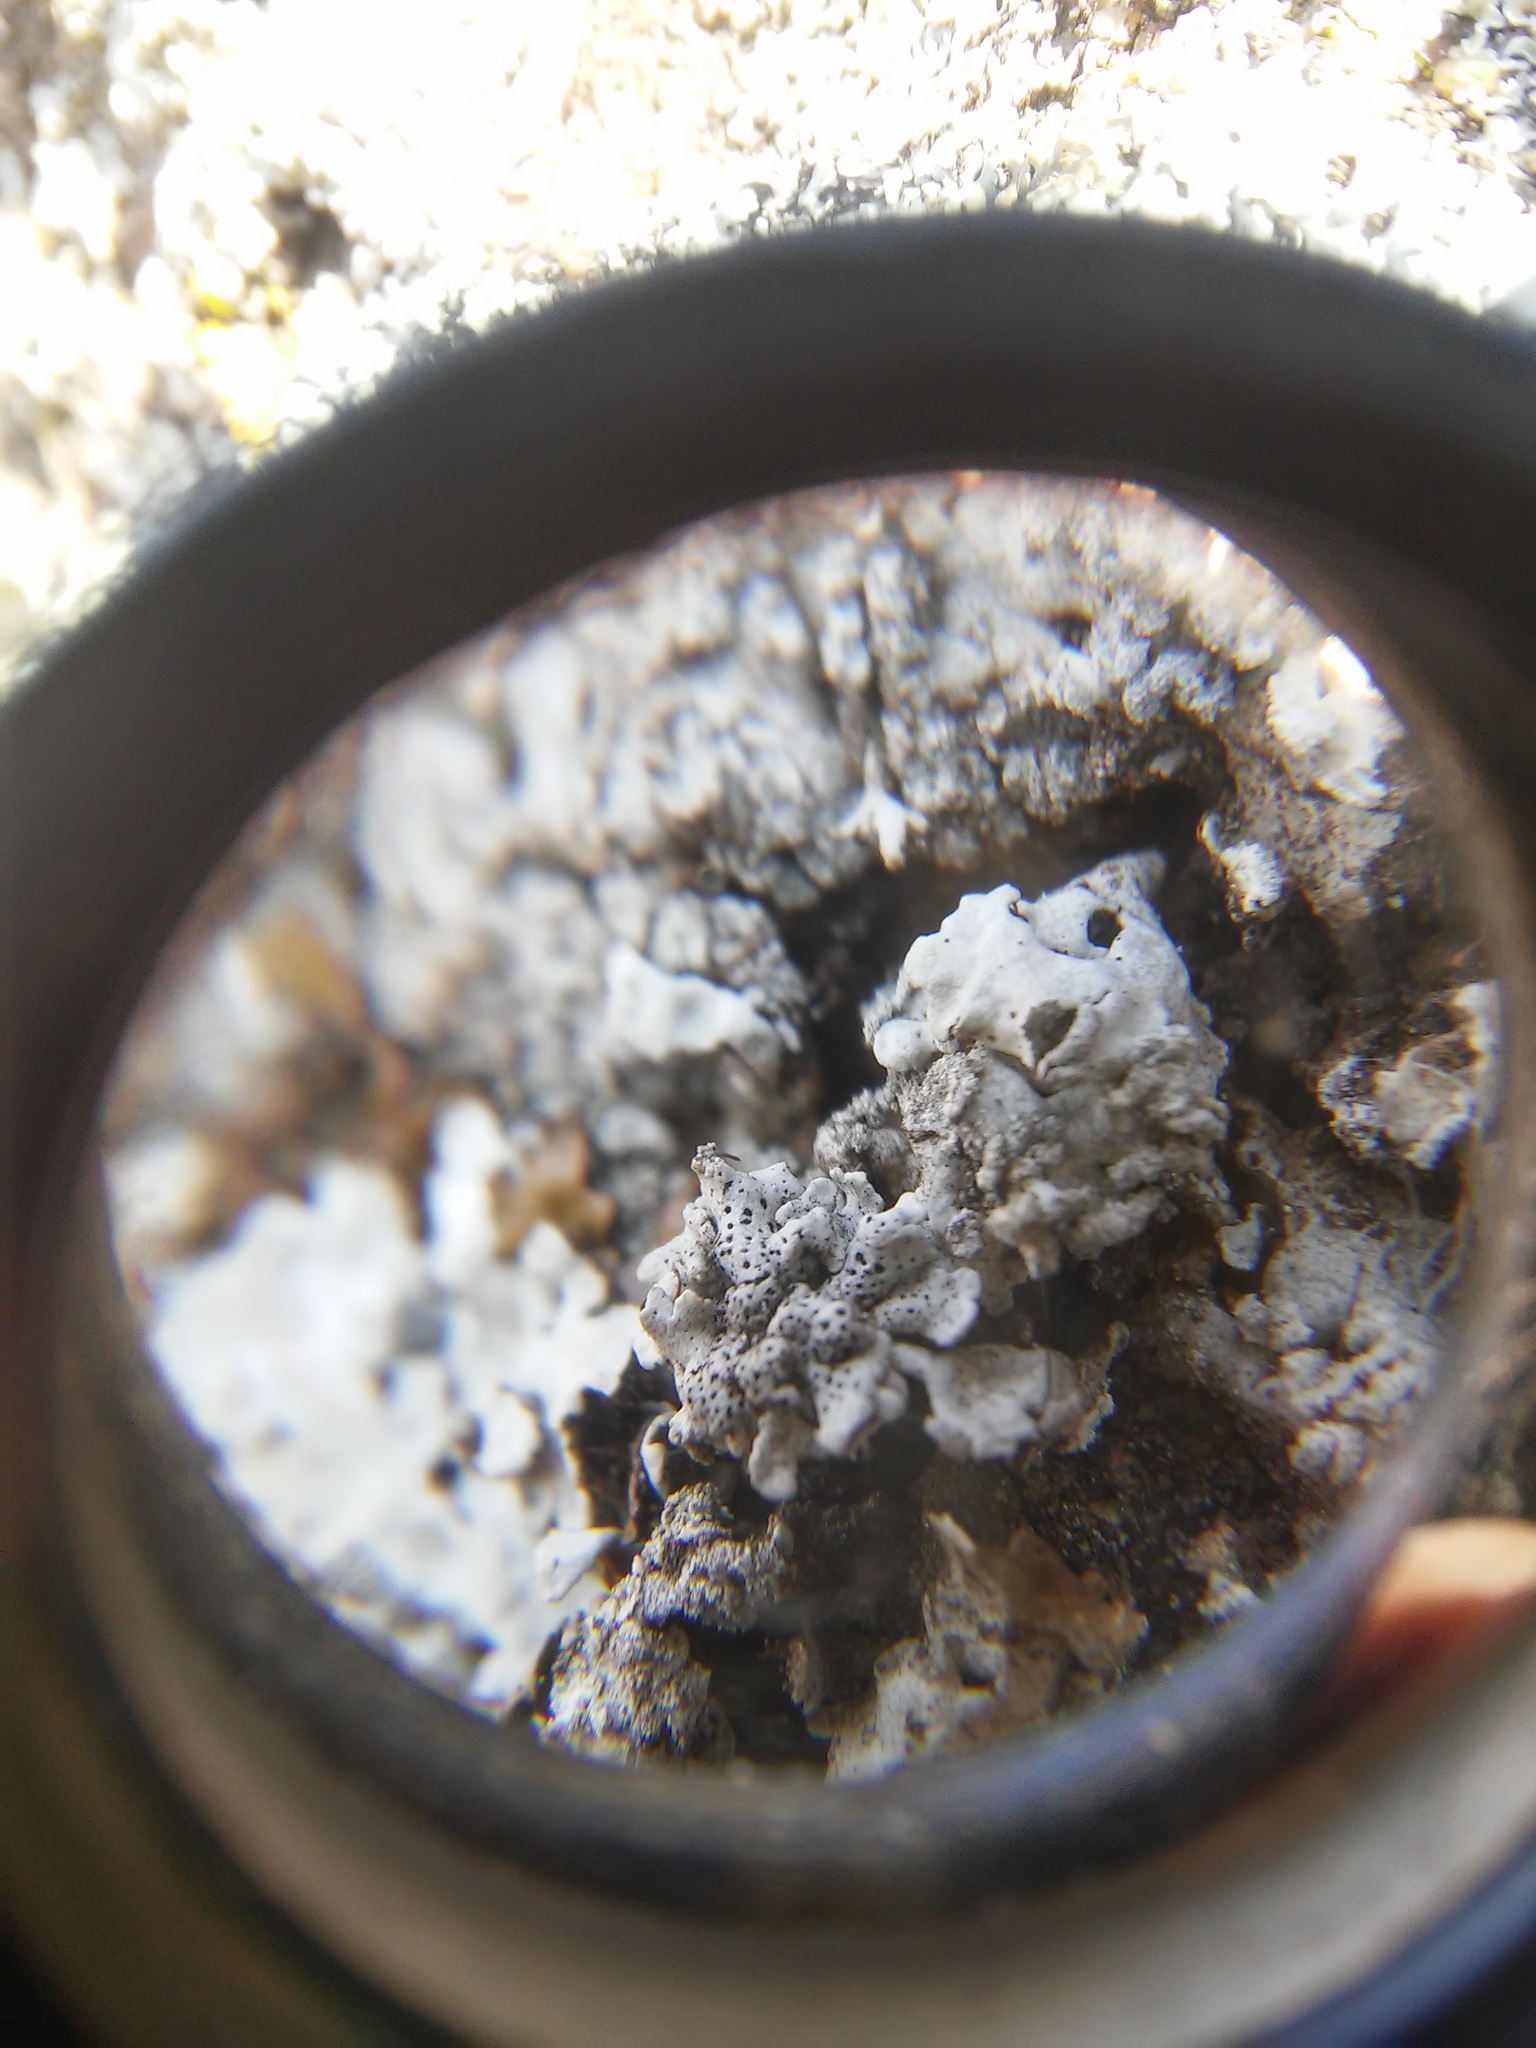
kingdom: Fungi
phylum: Ascomycota
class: Dothideomycetes
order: Trypetheliales
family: Polycoccaceae
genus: Polycoccum
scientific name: Polycoccum pulvinatum
